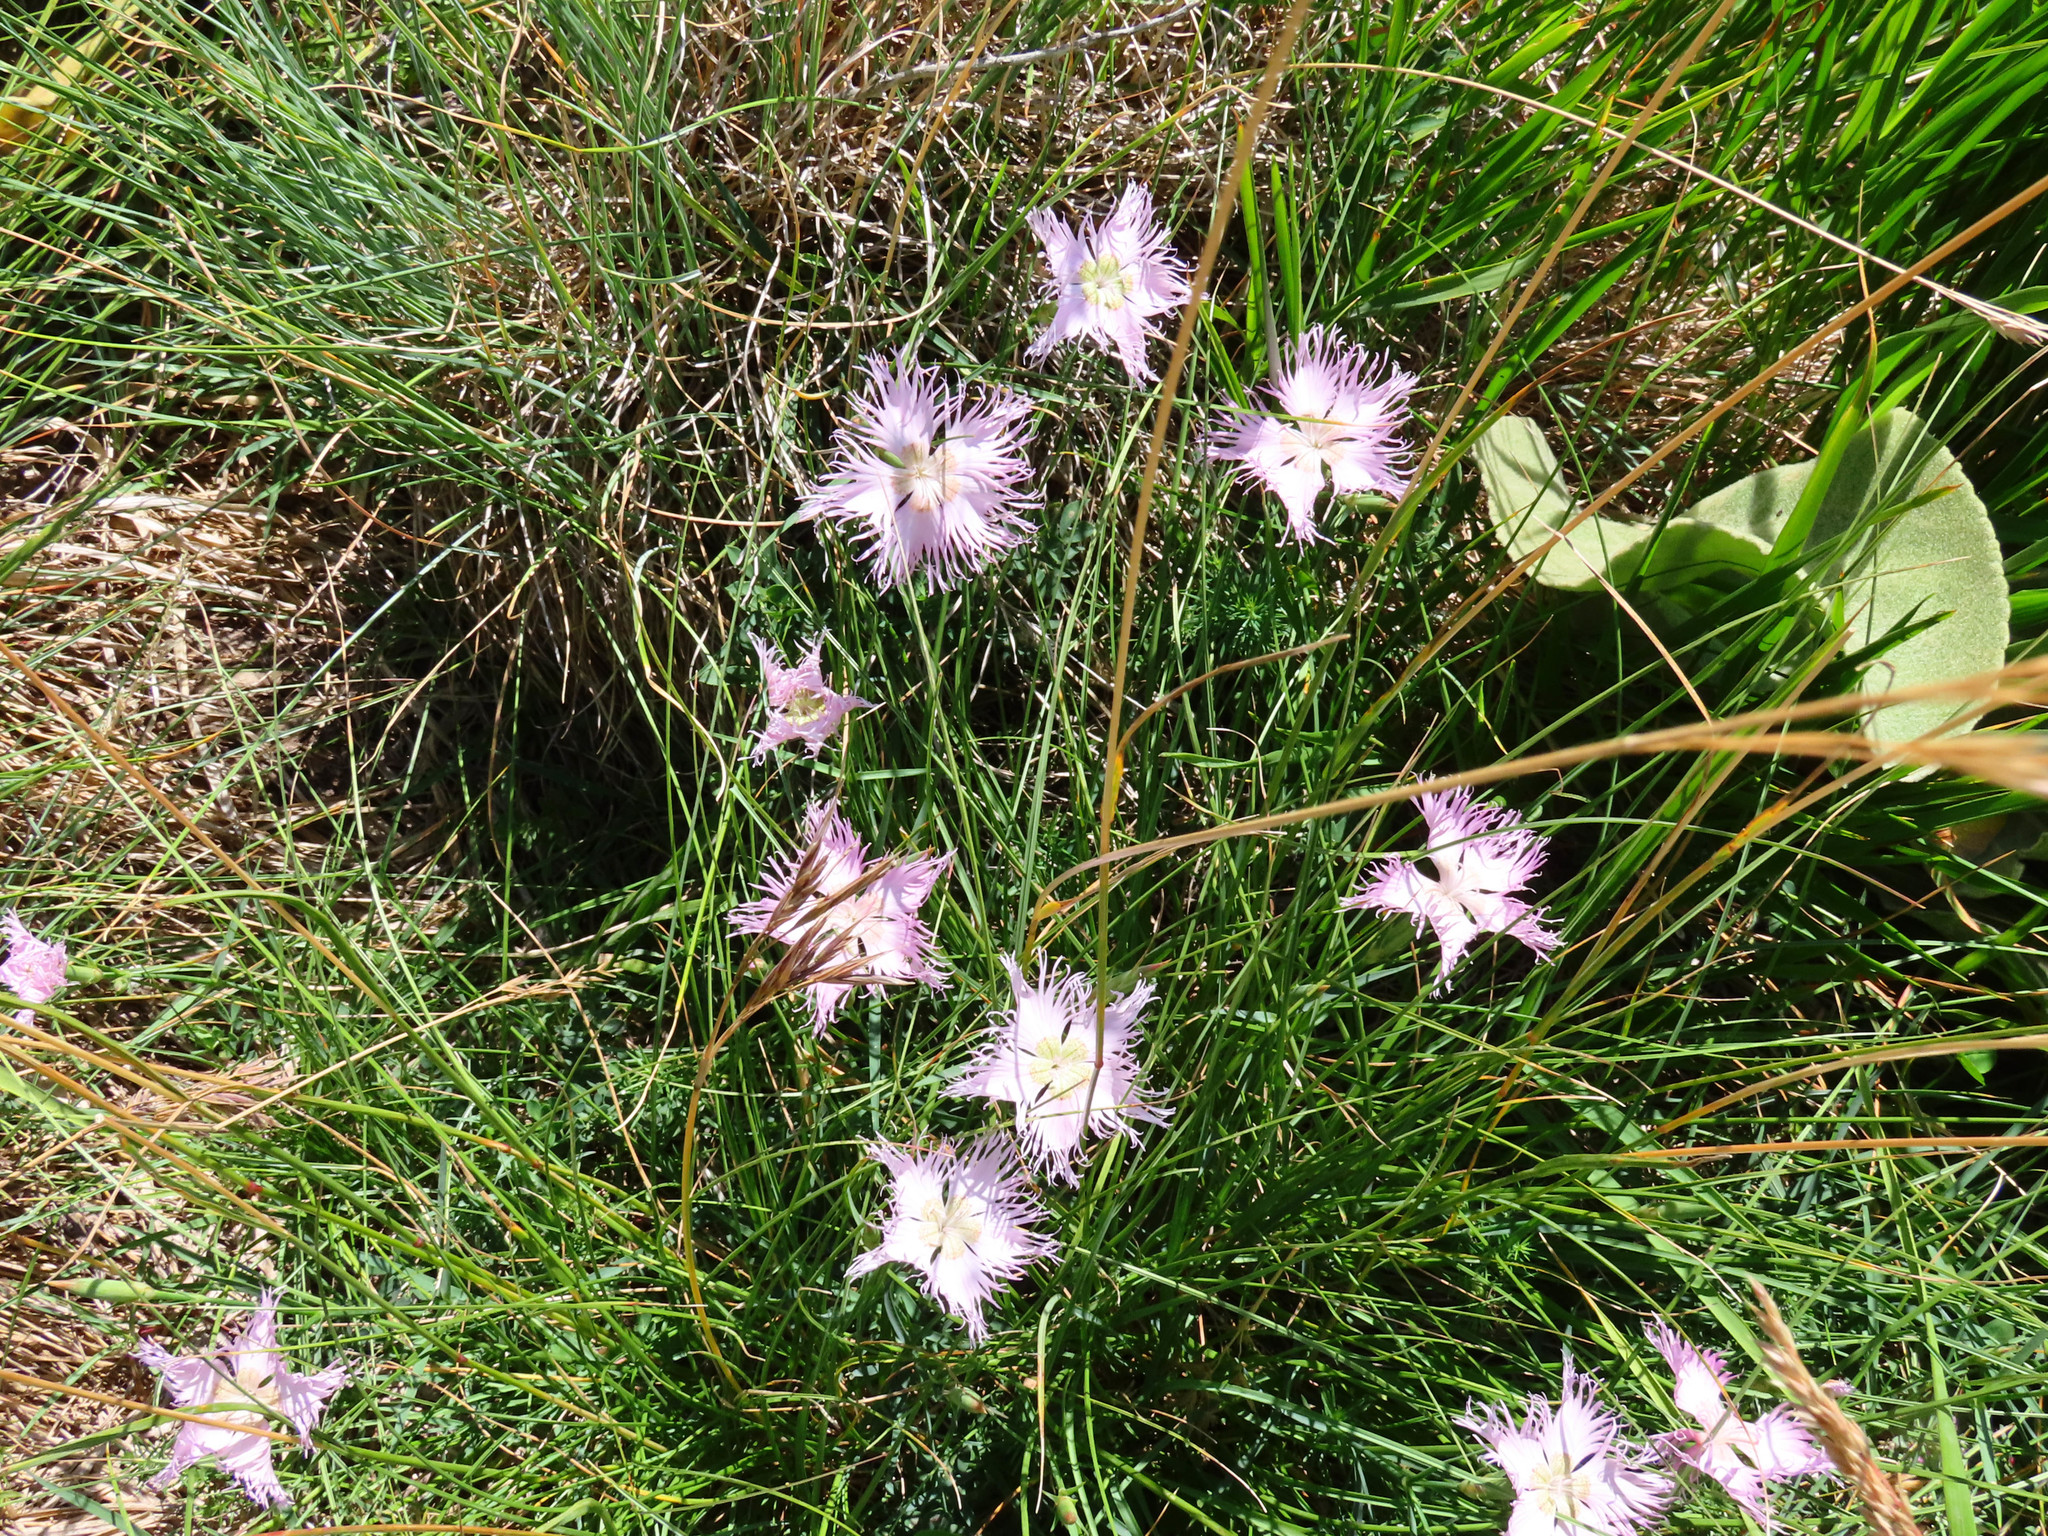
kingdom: Plantae
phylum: Tracheophyta
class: Magnoliopsida
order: Caryophyllales
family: Caryophyllaceae
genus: Dianthus
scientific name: Dianthus hyssopifolius
